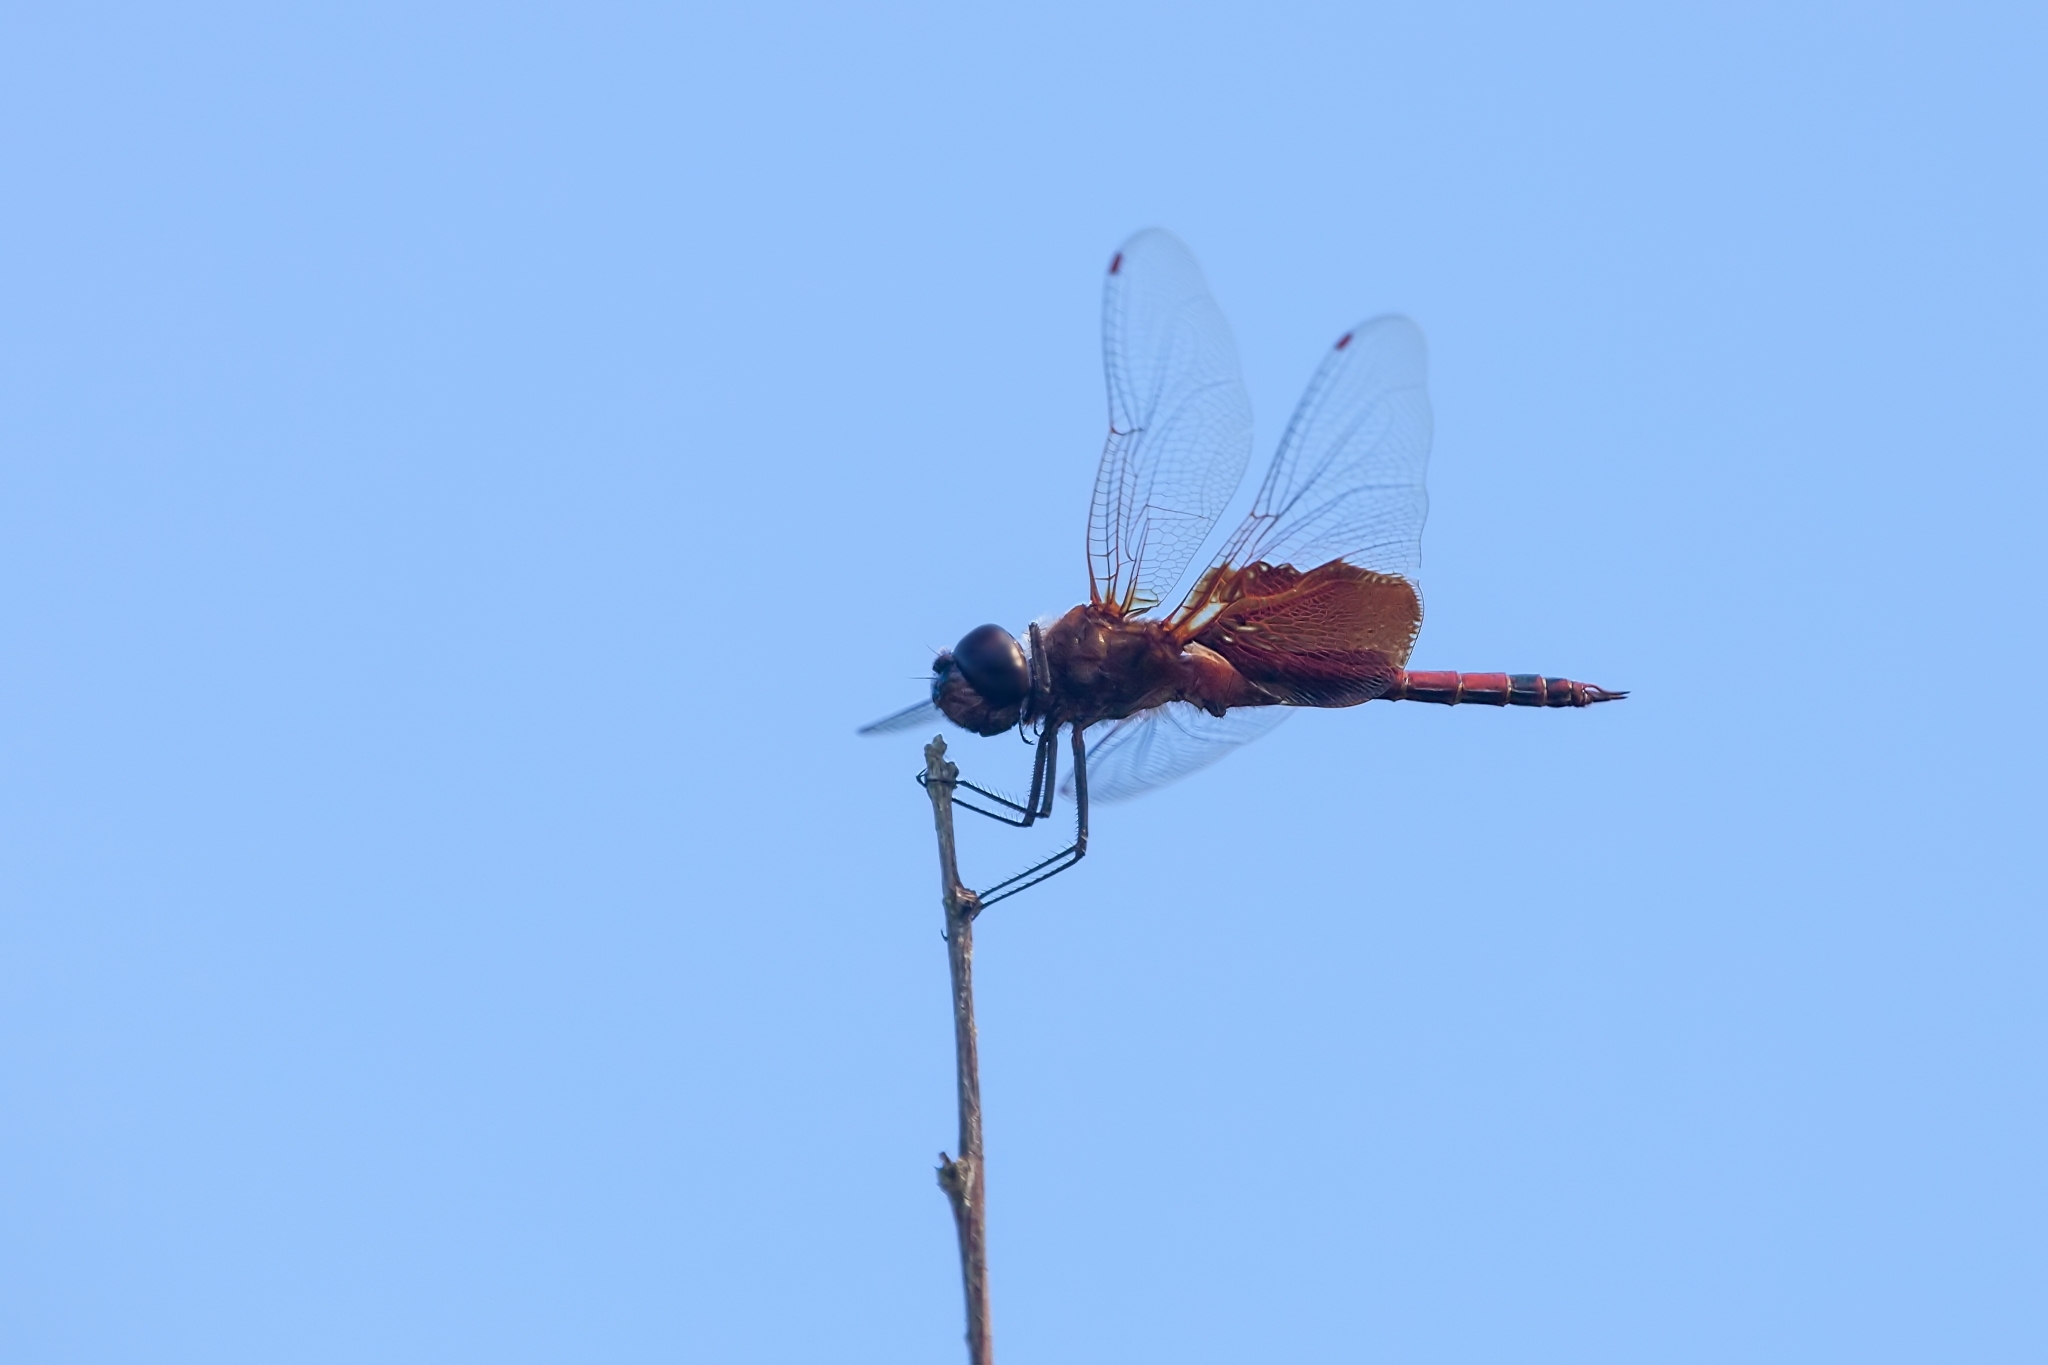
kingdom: Animalia
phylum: Arthropoda
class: Insecta
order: Odonata
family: Libellulidae
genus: Tramea
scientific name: Tramea carolina
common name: Carolina saddlebags
